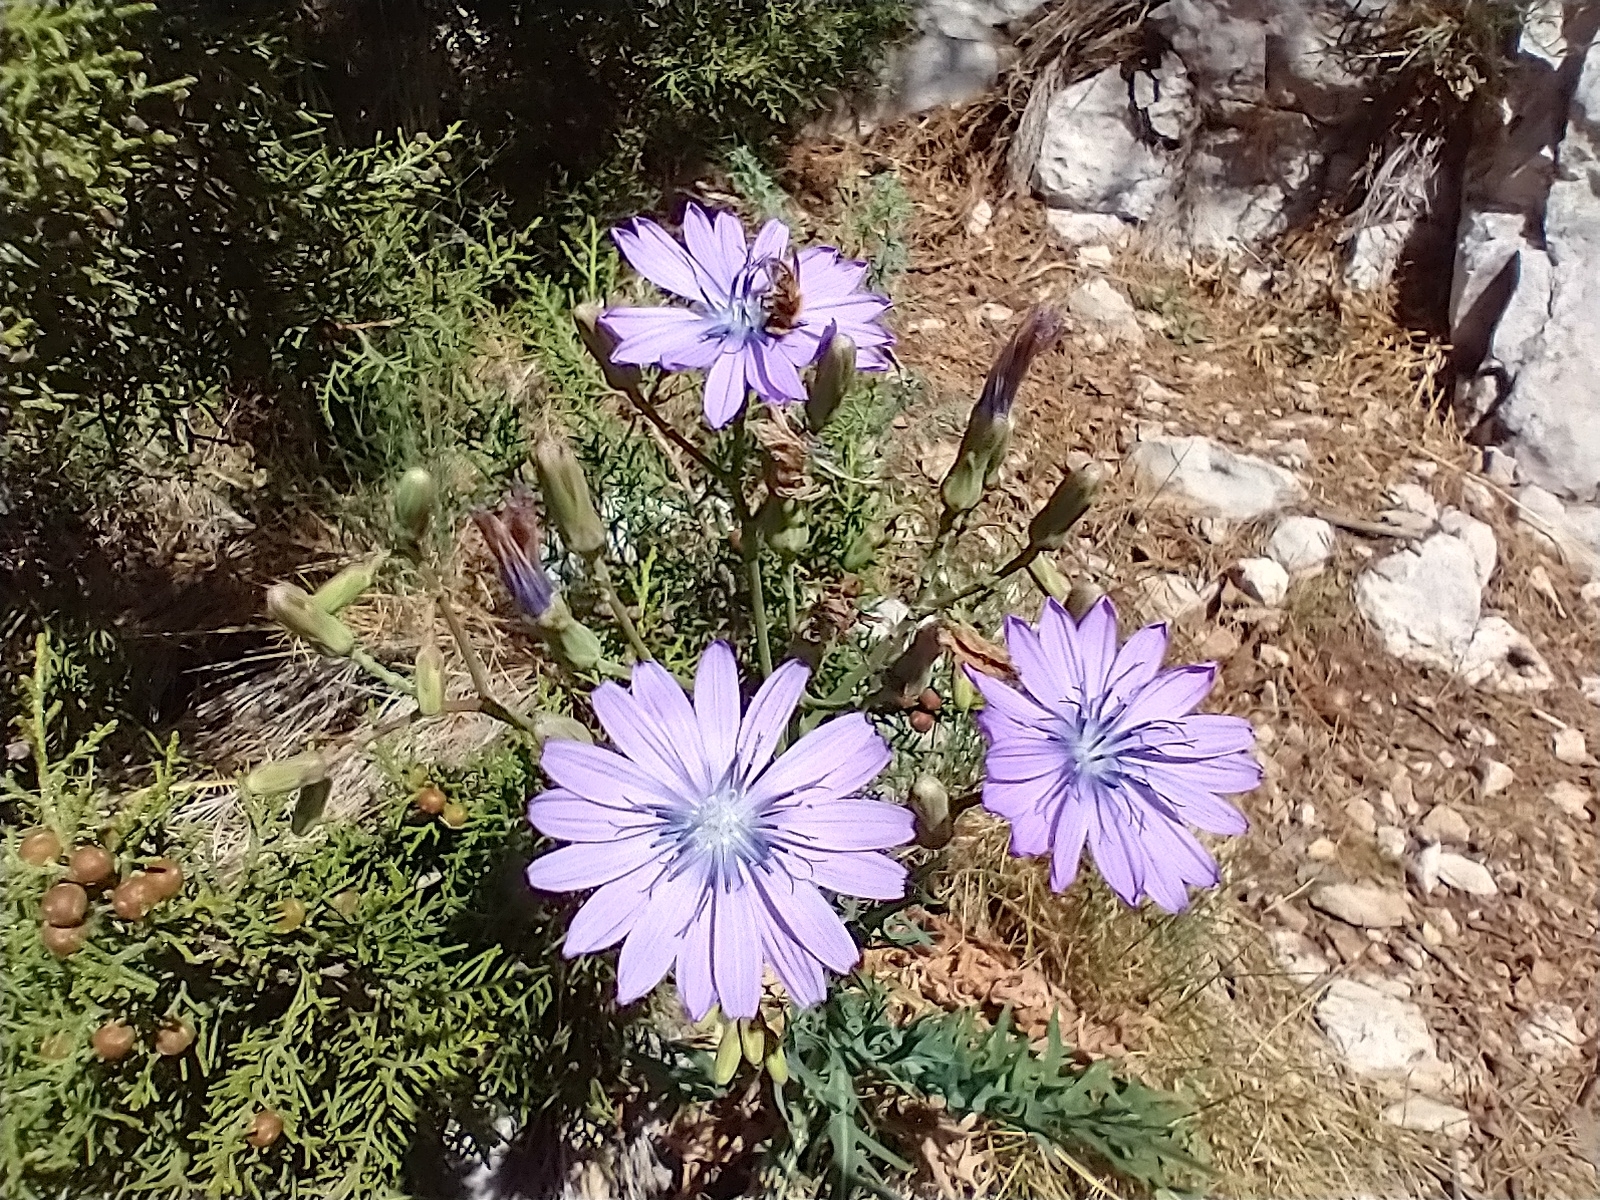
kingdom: Plantae
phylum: Tracheophyta
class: Magnoliopsida
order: Asterales
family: Asteraceae
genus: Lactuca
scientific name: Lactuca perennis
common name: Mountain lettuce
